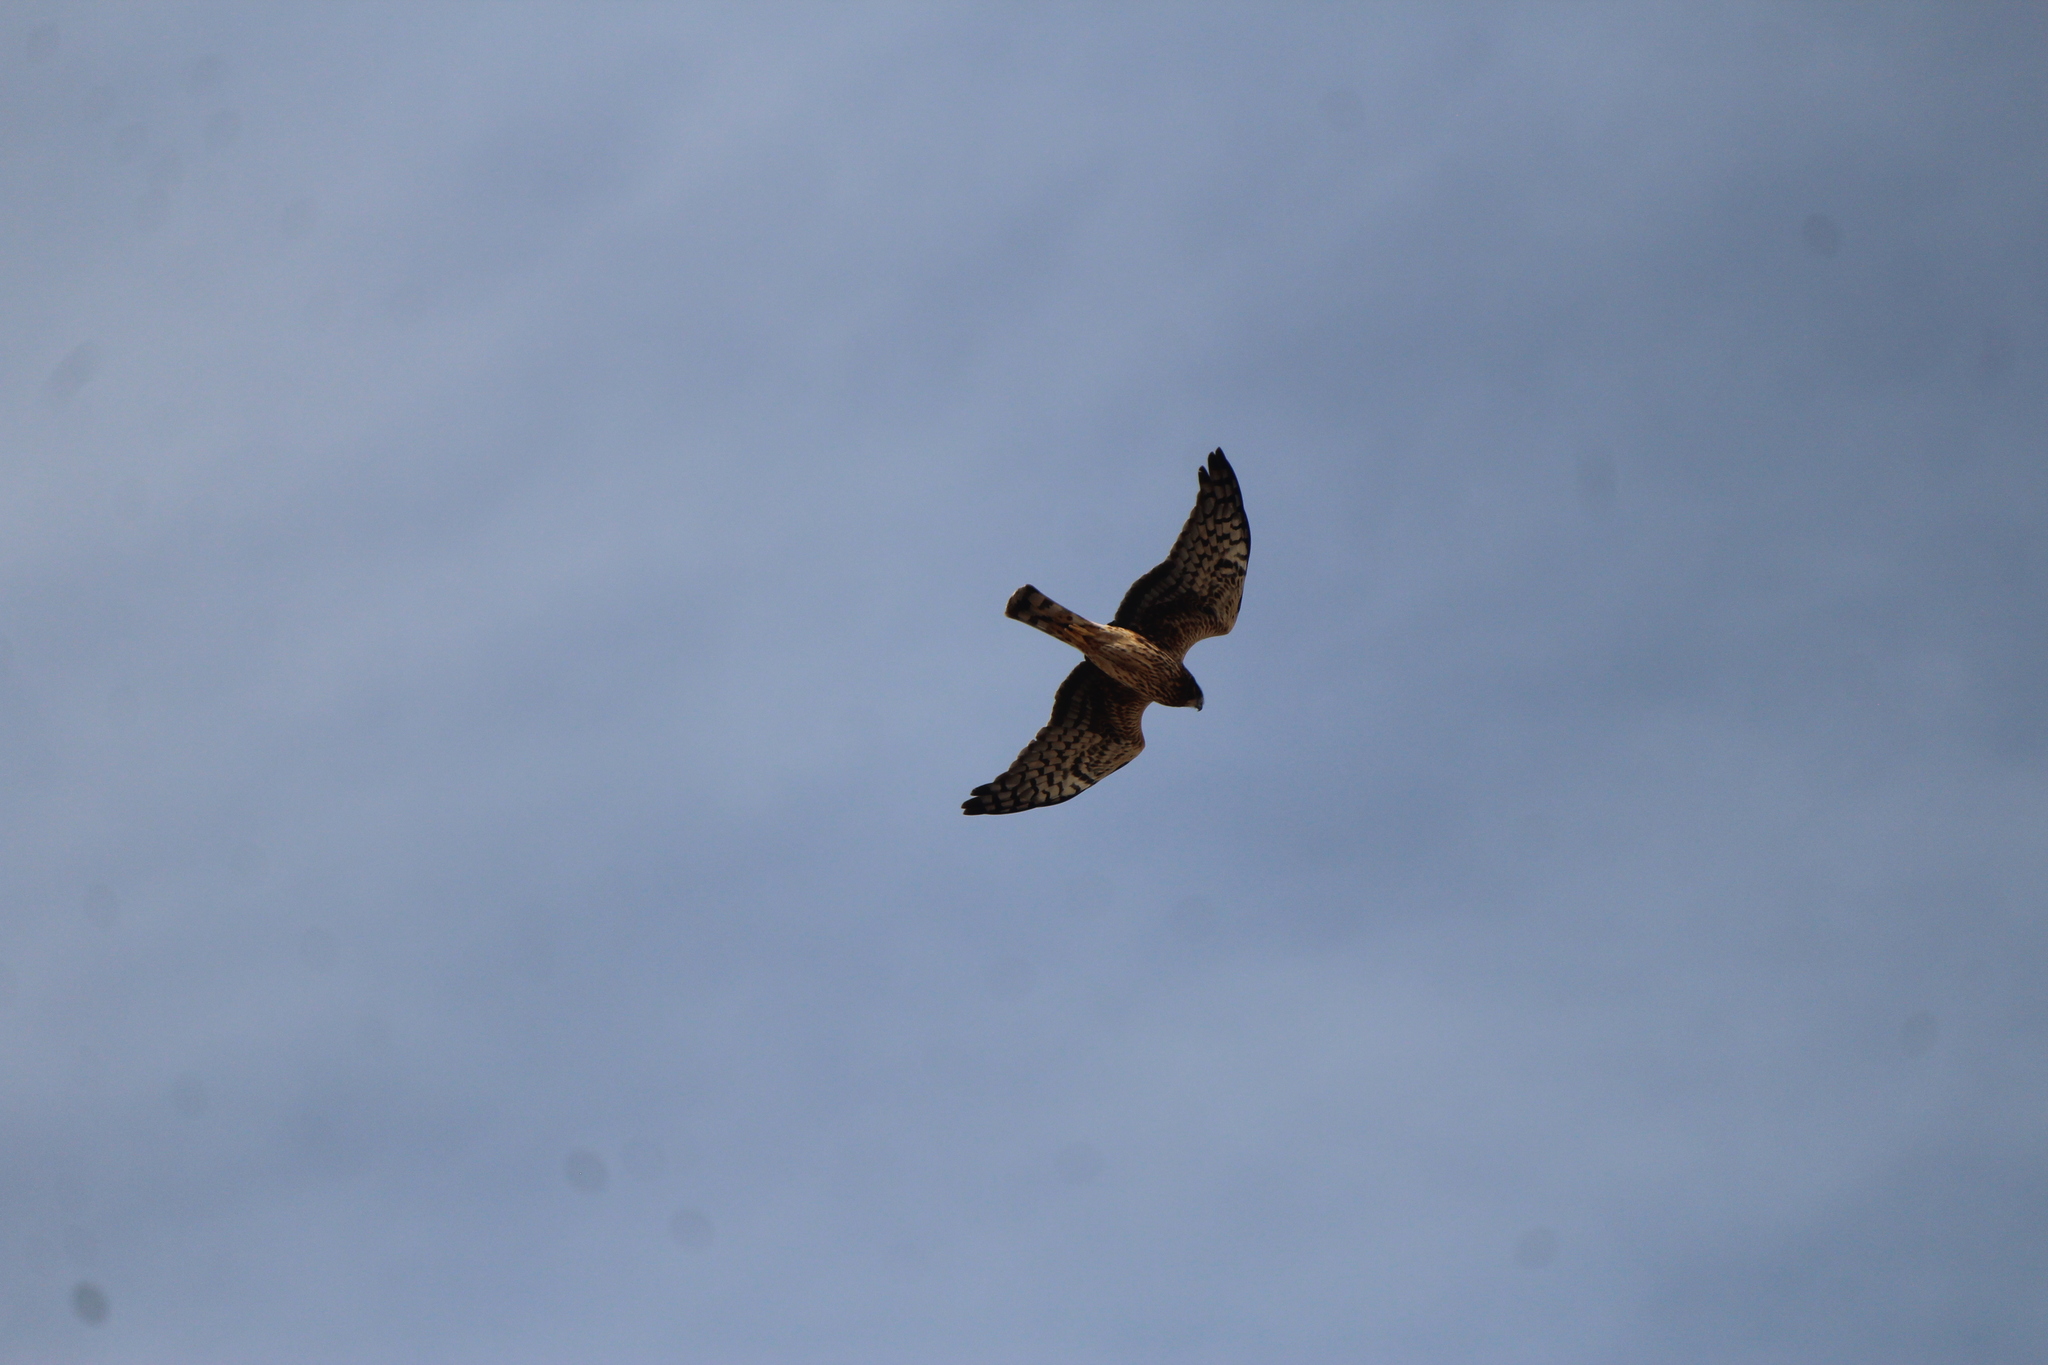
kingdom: Animalia
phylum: Chordata
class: Aves
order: Accipitriformes
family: Accipitridae
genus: Circus
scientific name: Circus cyaneus
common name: Hen harrier
